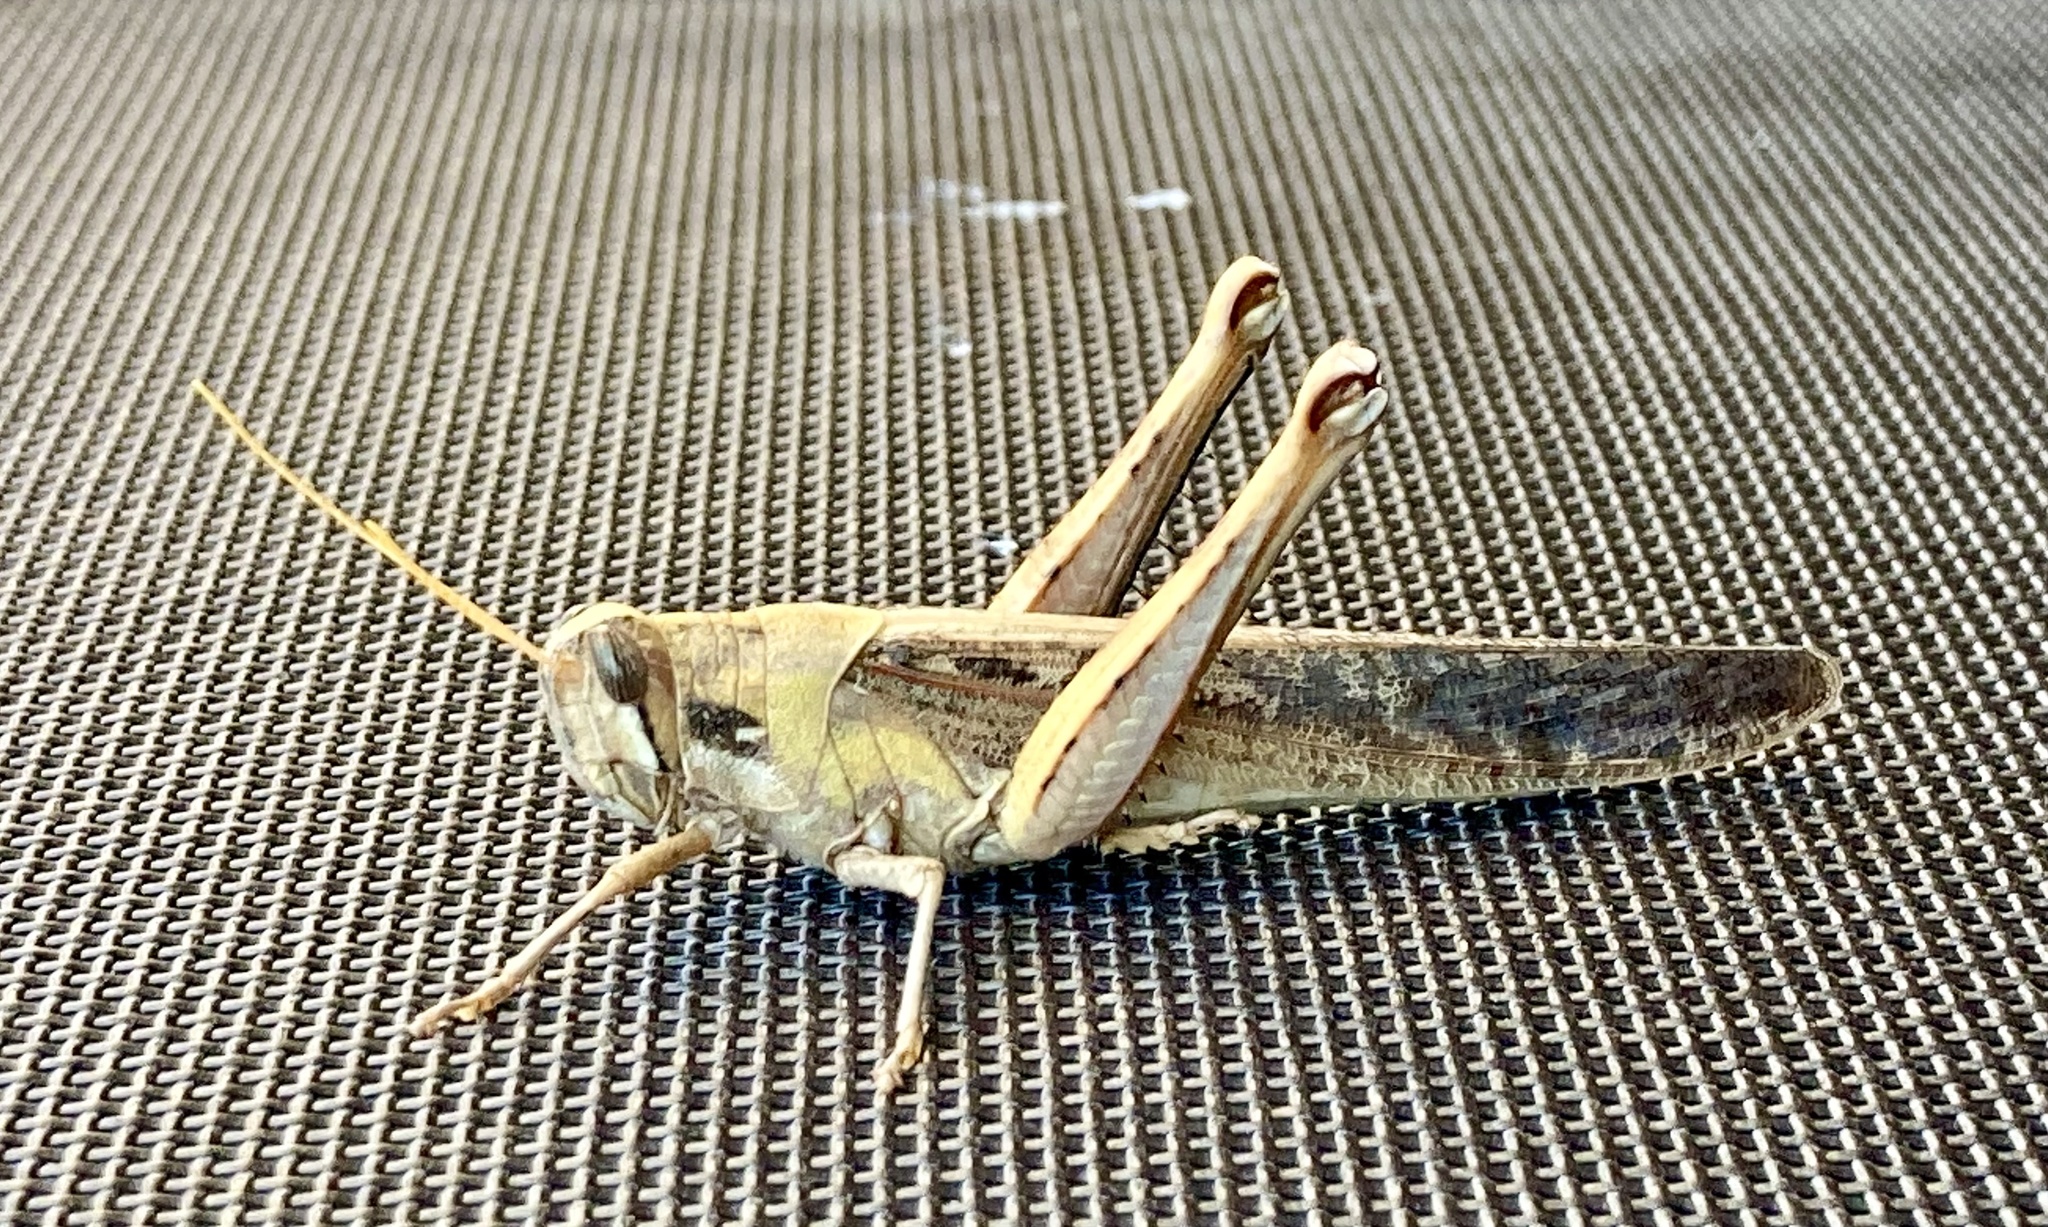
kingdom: Animalia
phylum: Arthropoda
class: Insecta
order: Orthoptera
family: Acrididae
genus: Schistocerca
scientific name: Schistocerca nitens
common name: Vagrant grasshopper
